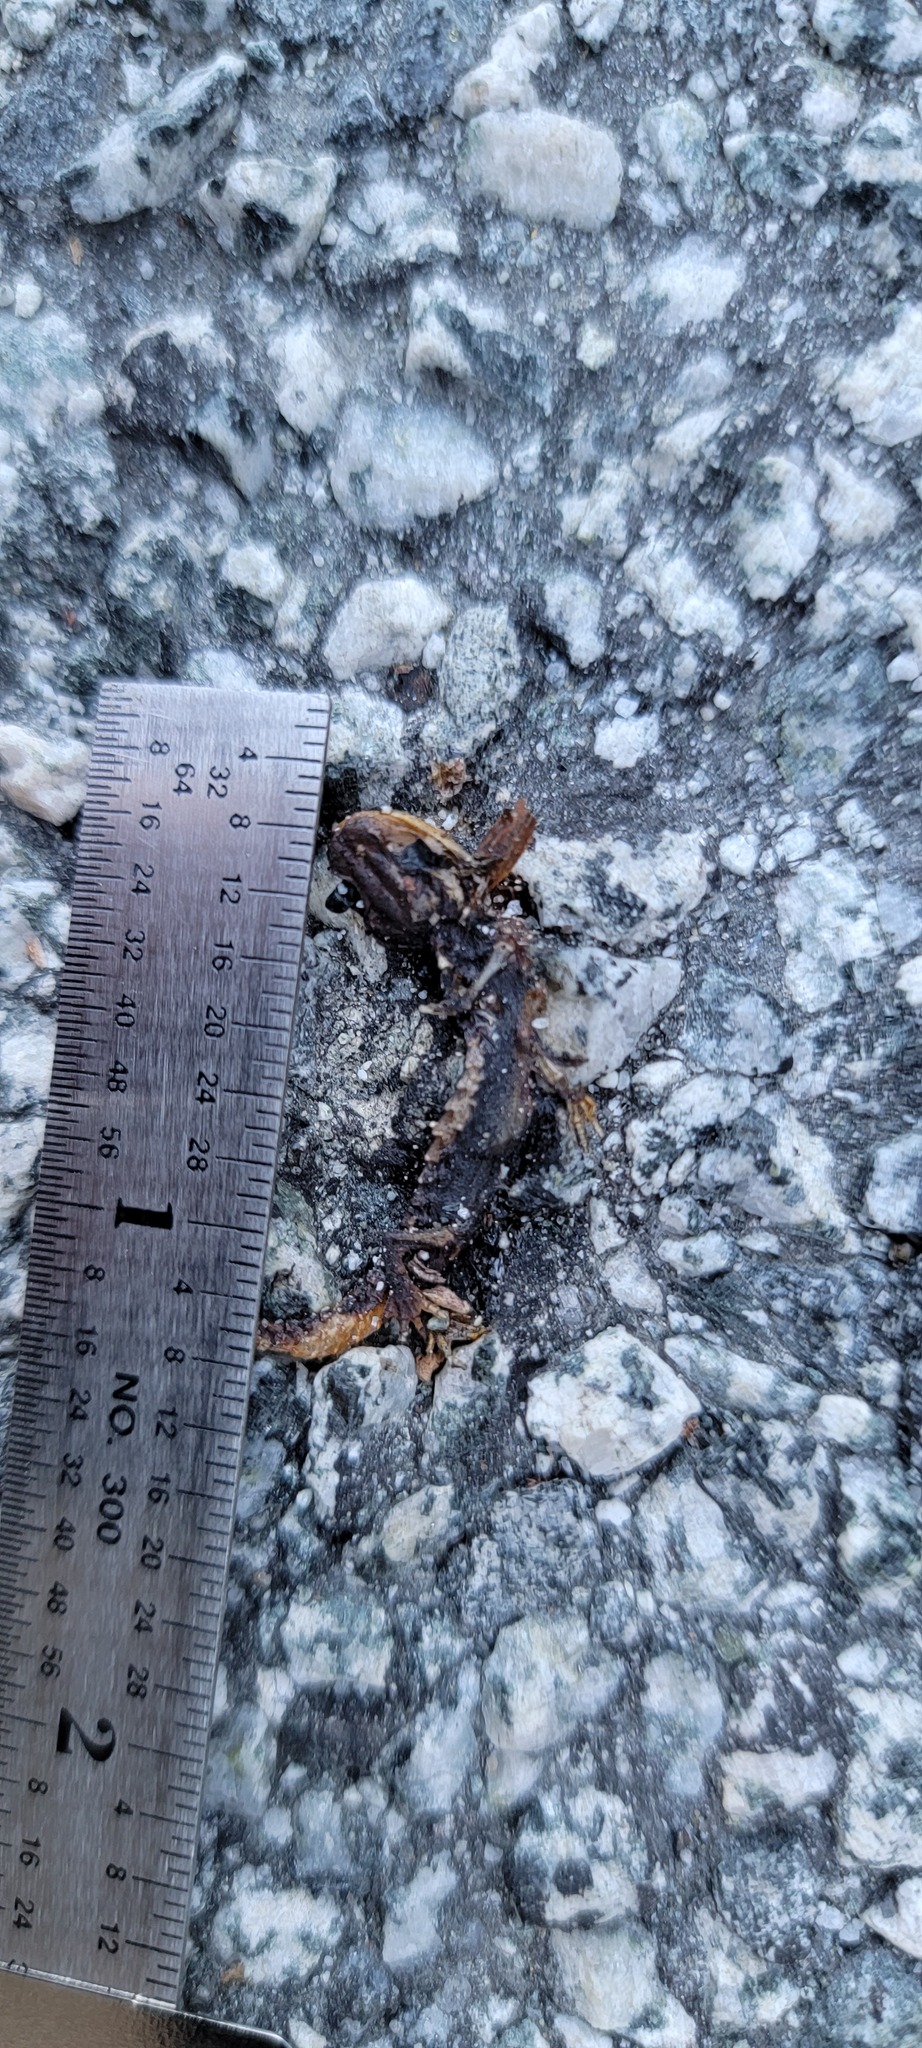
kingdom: Animalia
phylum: Chordata
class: Amphibia
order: Caudata
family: Salamandridae
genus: Taricha
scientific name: Taricha
